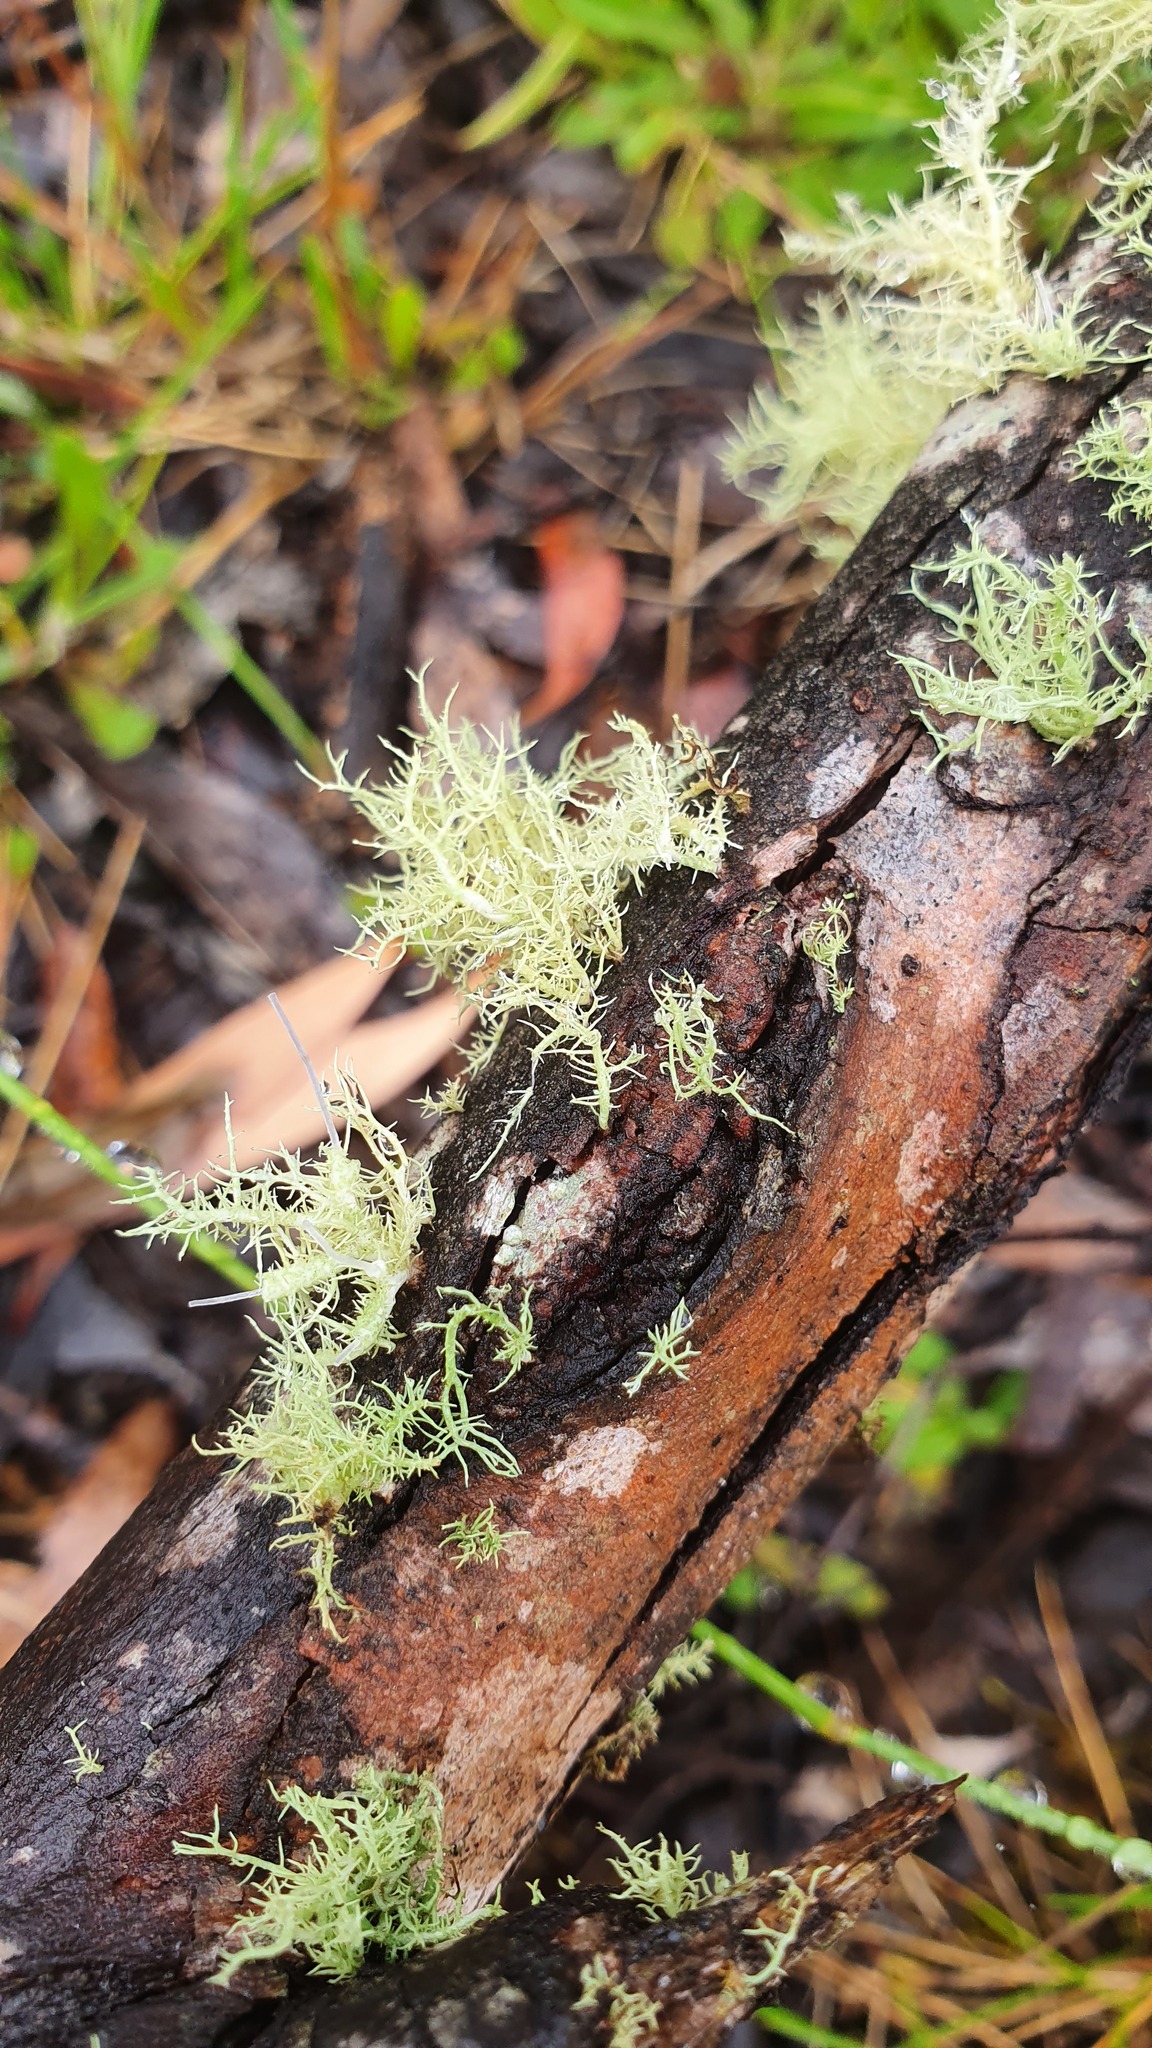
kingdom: Fungi
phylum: Ascomycota
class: Lecanoromycetes
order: Lecanorales
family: Parmeliaceae
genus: Usnea
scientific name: Usnea hirta
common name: Bristly beard lichen
